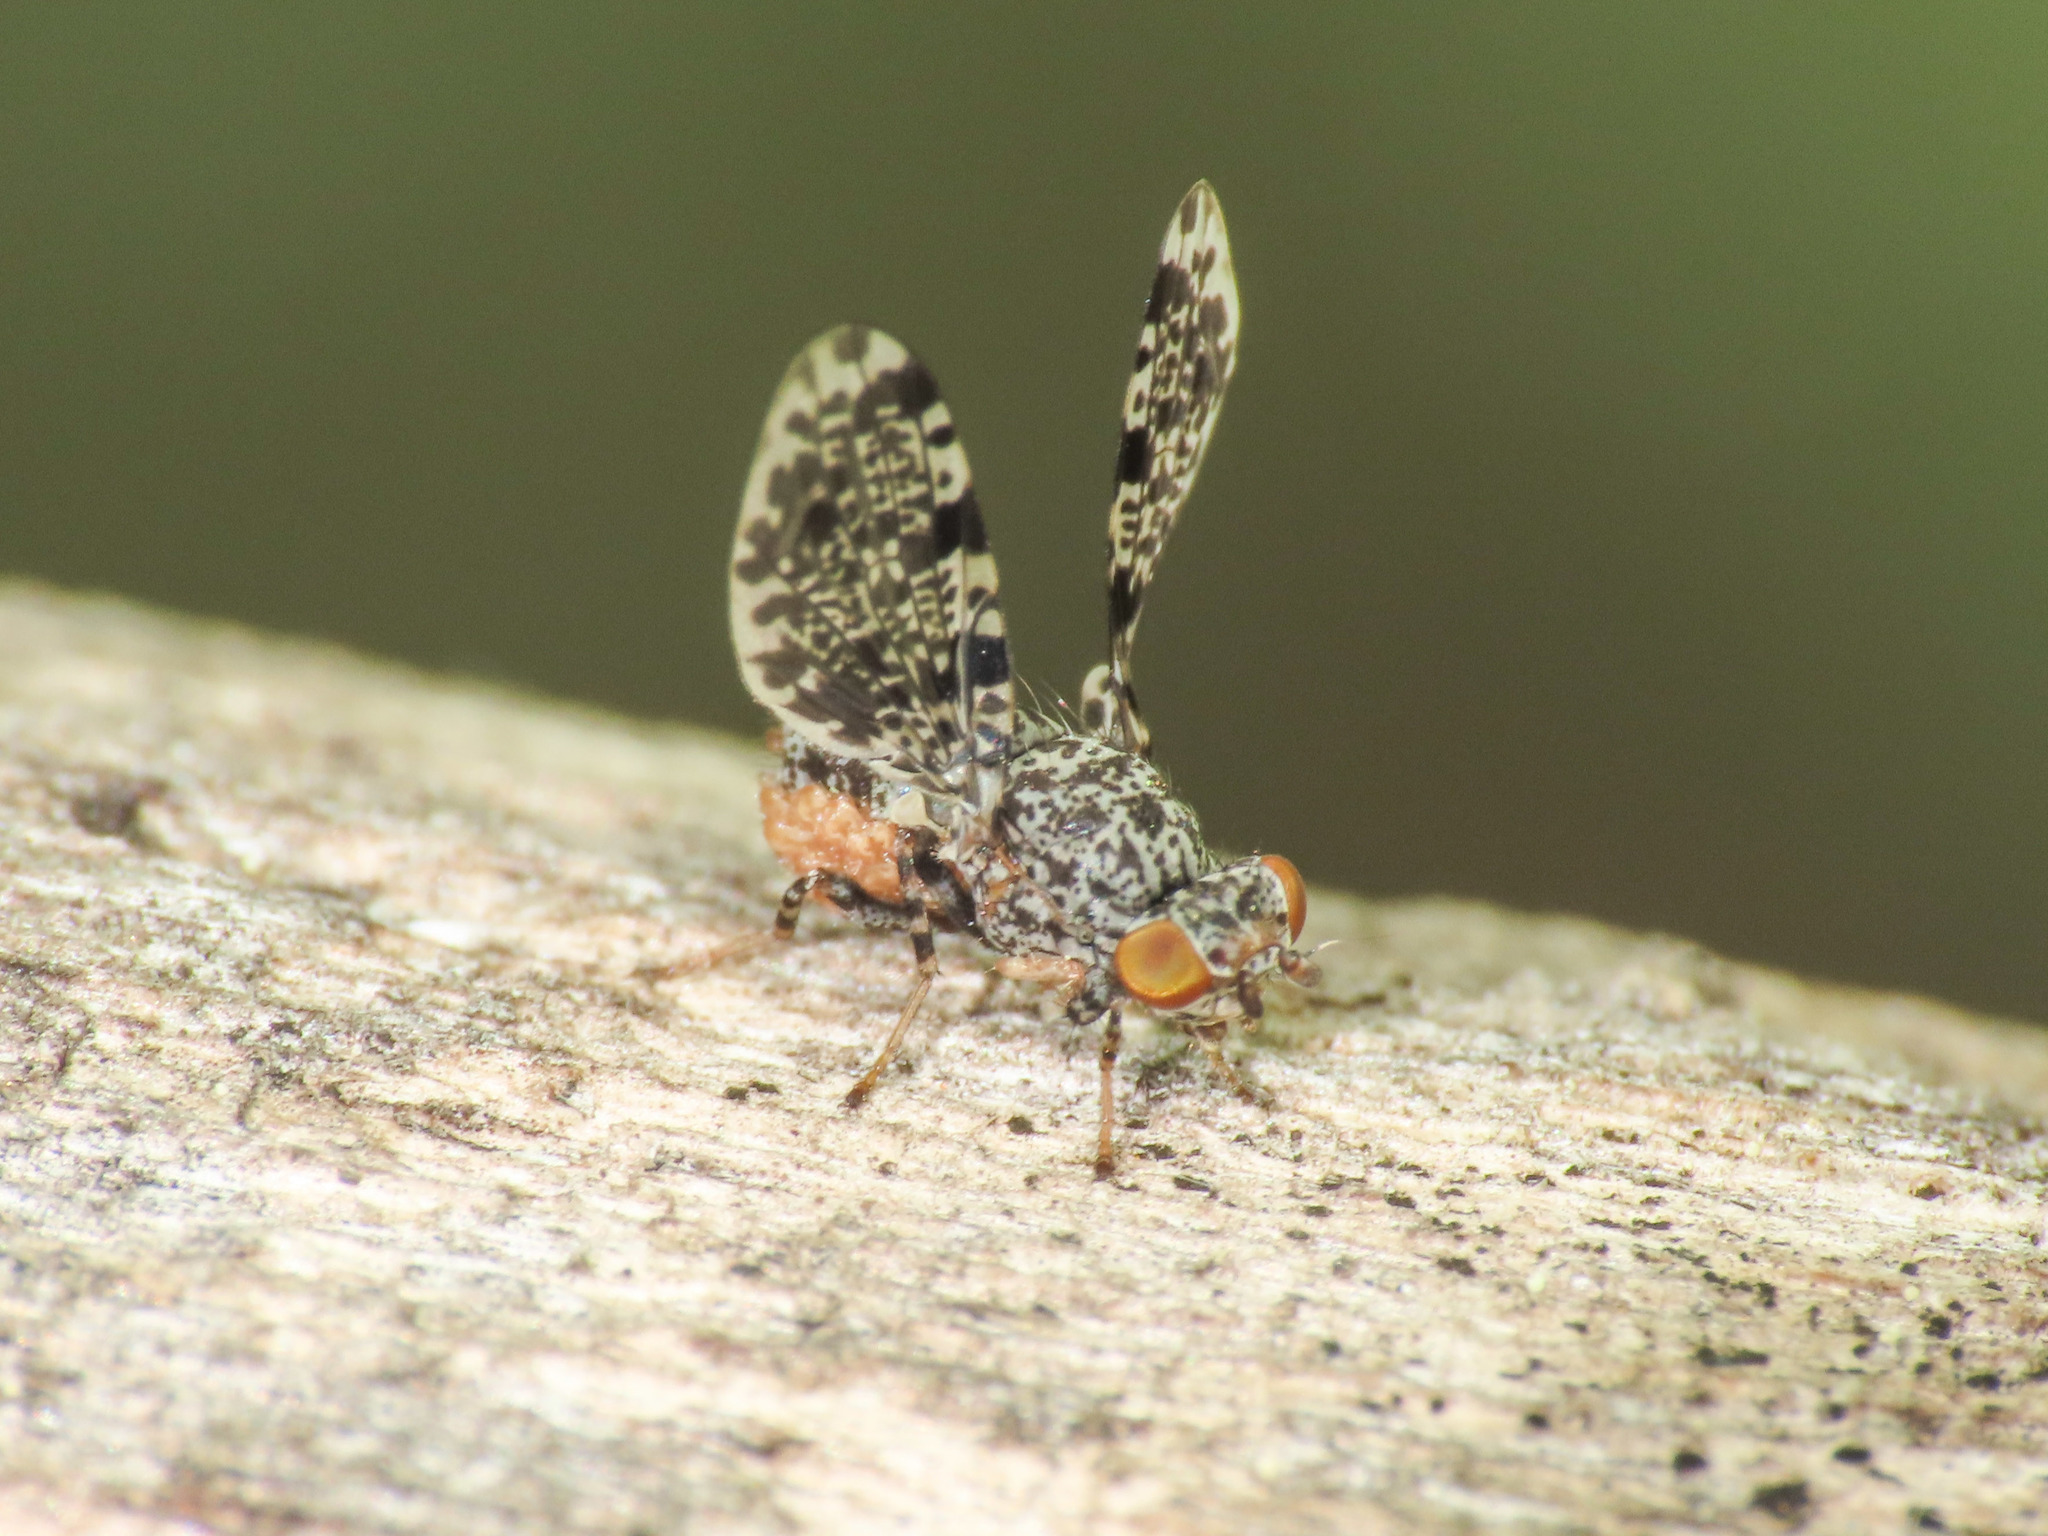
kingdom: Animalia
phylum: Arthropoda
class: Insecta
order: Diptera
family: Ulidiidae
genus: Callopistromyia
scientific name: Callopistromyia annulipes
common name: Peacock fly
